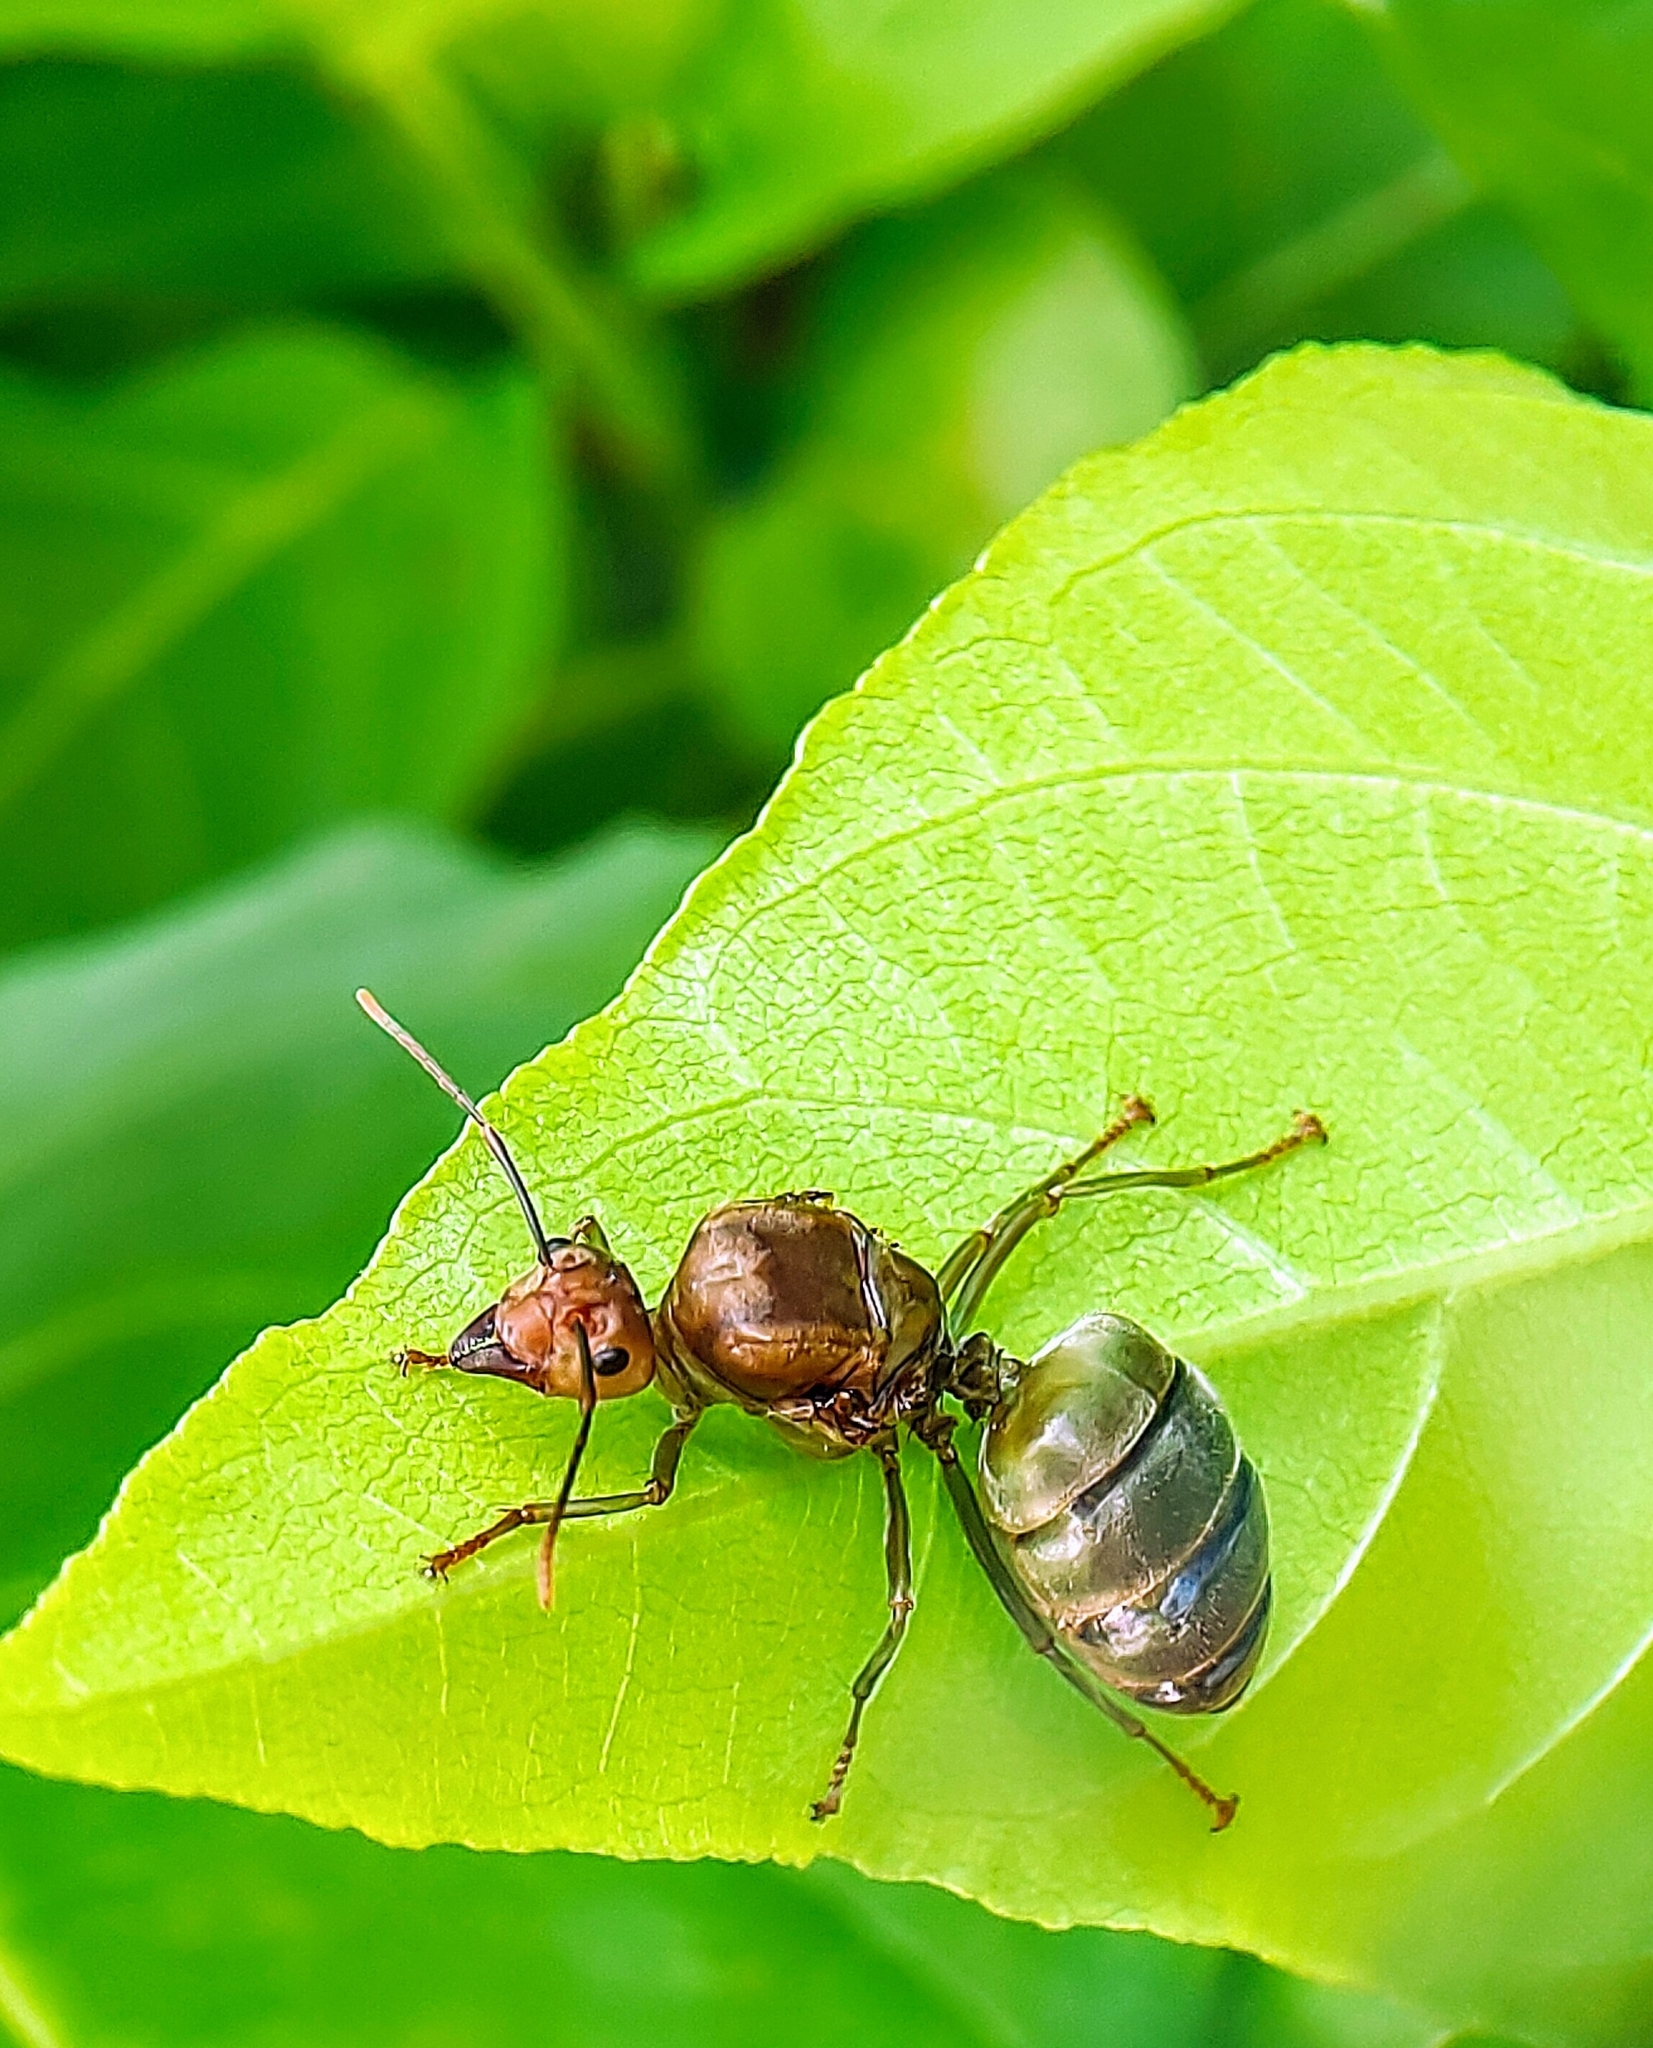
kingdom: Animalia
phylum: Arthropoda
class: Insecta
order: Hymenoptera
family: Formicidae
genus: Oecophylla
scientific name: Oecophylla smaragdina
